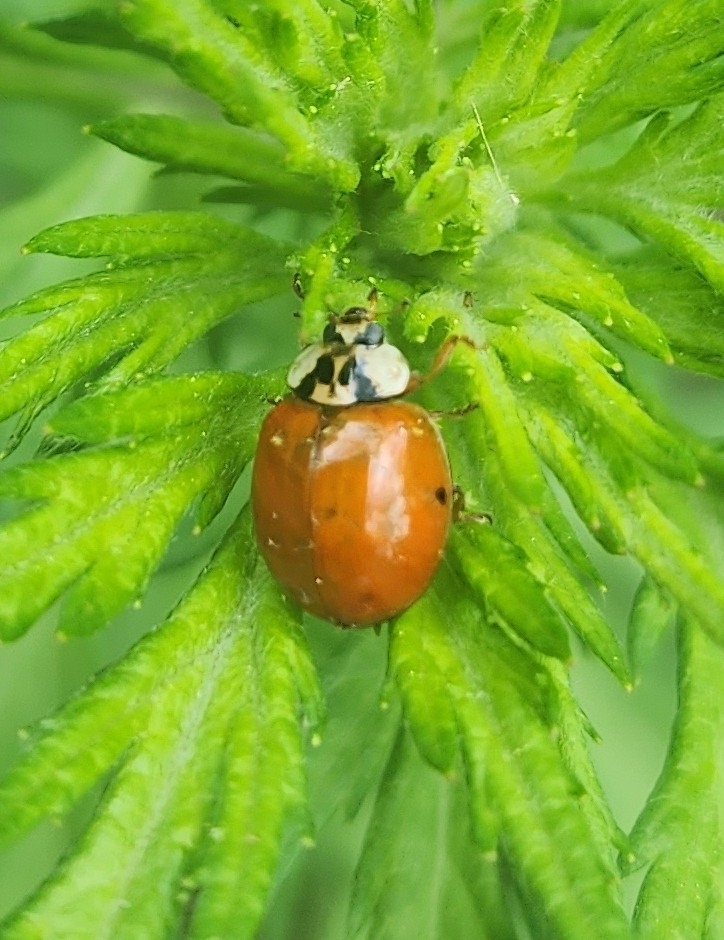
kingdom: Animalia
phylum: Arthropoda
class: Insecta
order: Coleoptera
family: Coccinellidae
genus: Harmonia
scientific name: Harmonia axyridis
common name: Harlequin ladybird
